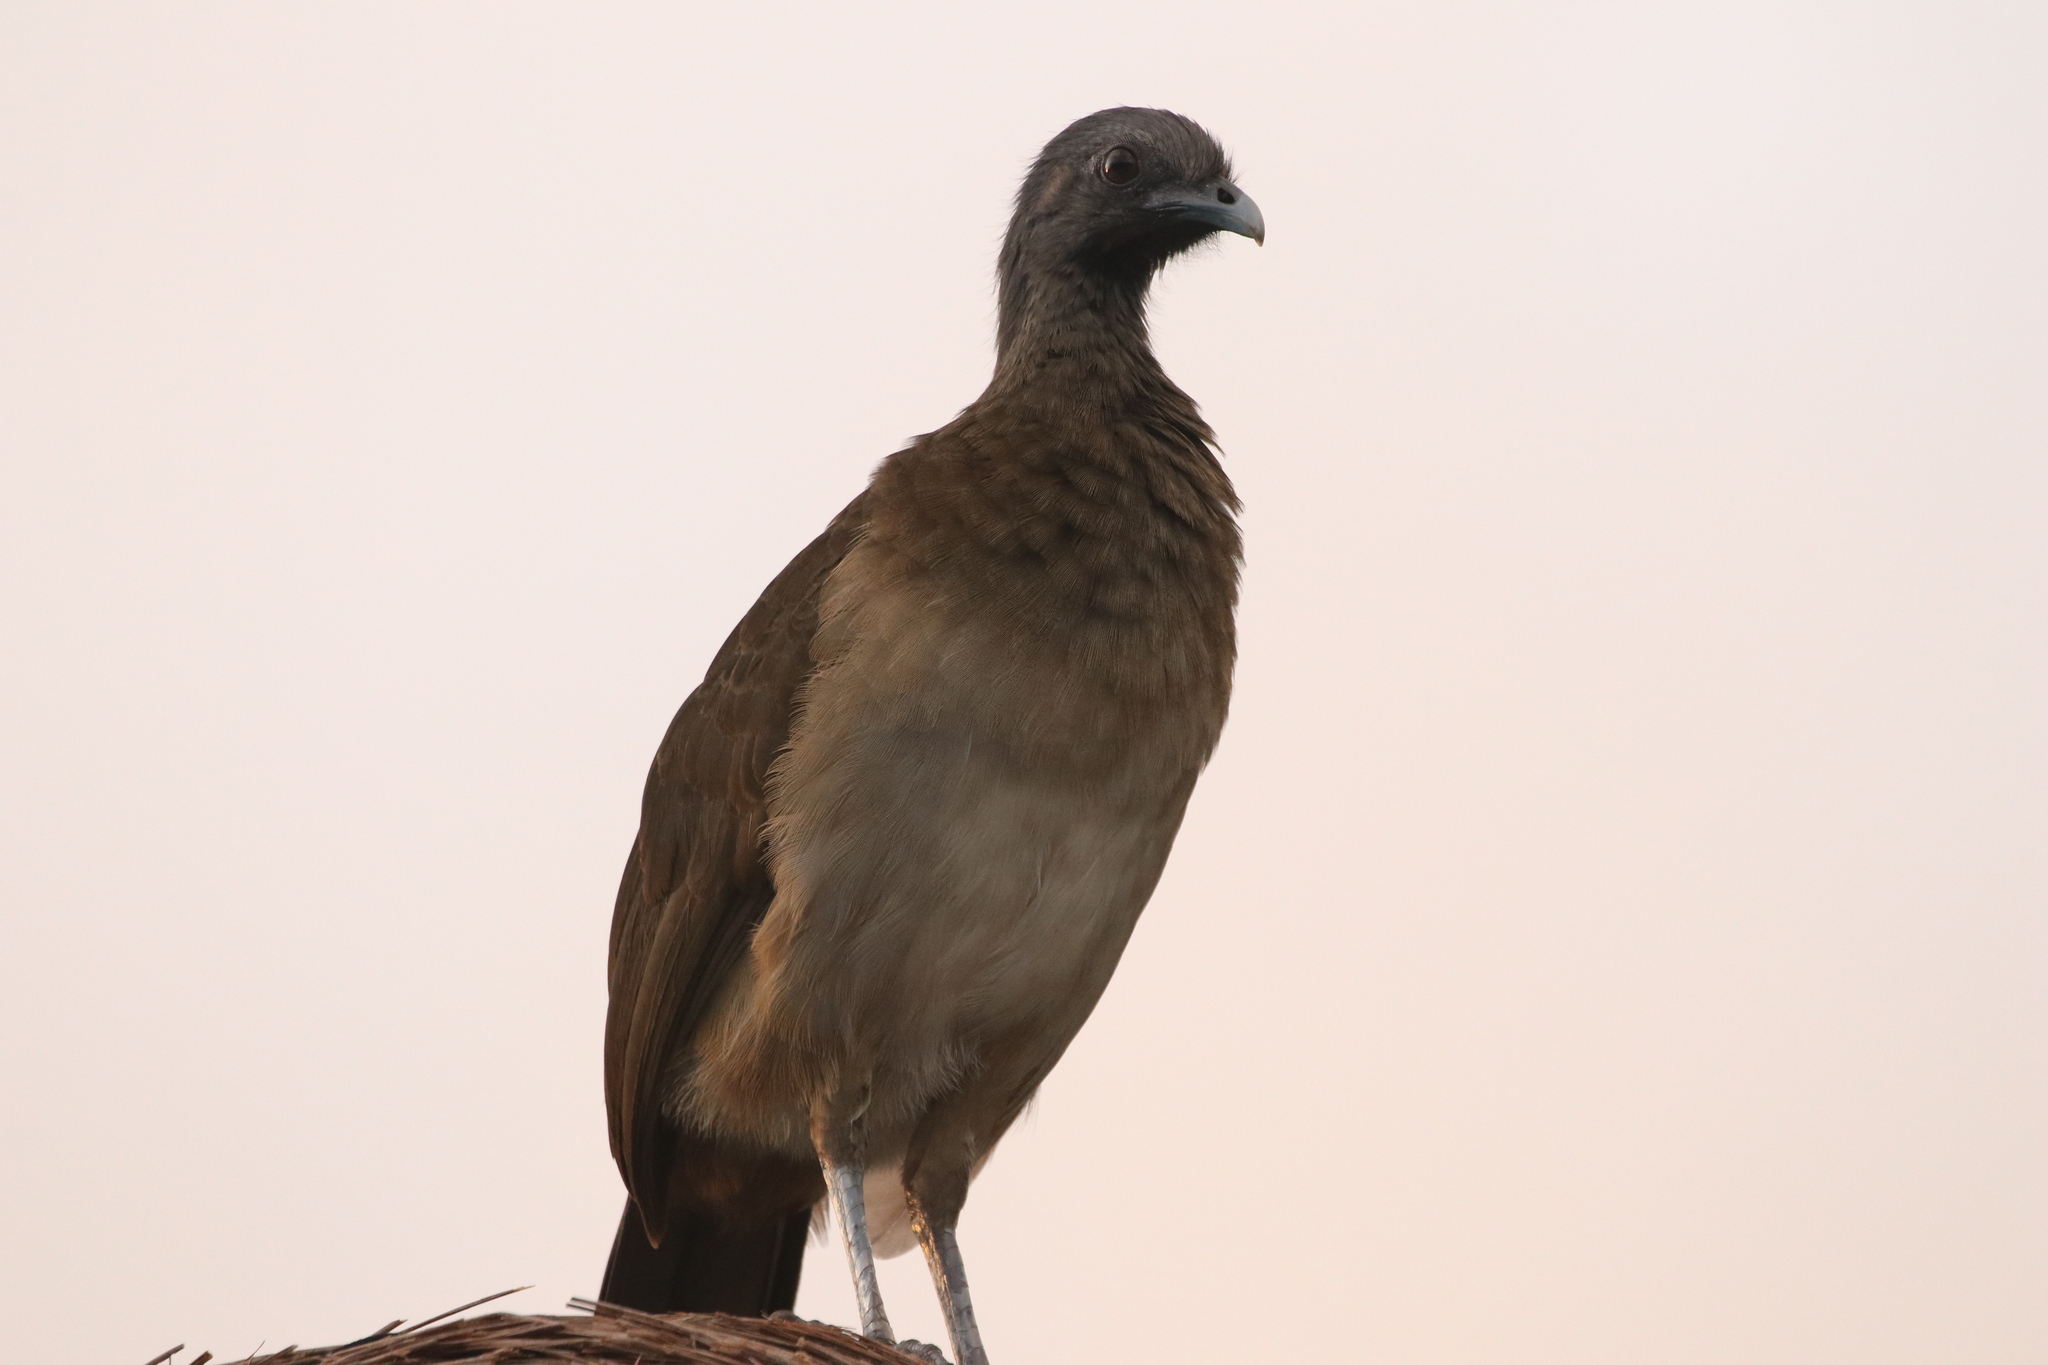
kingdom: Animalia
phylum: Chordata
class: Aves
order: Galliformes
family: Cracidae
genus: Ortalis
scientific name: Ortalis vetula
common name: Plain chachalaca
